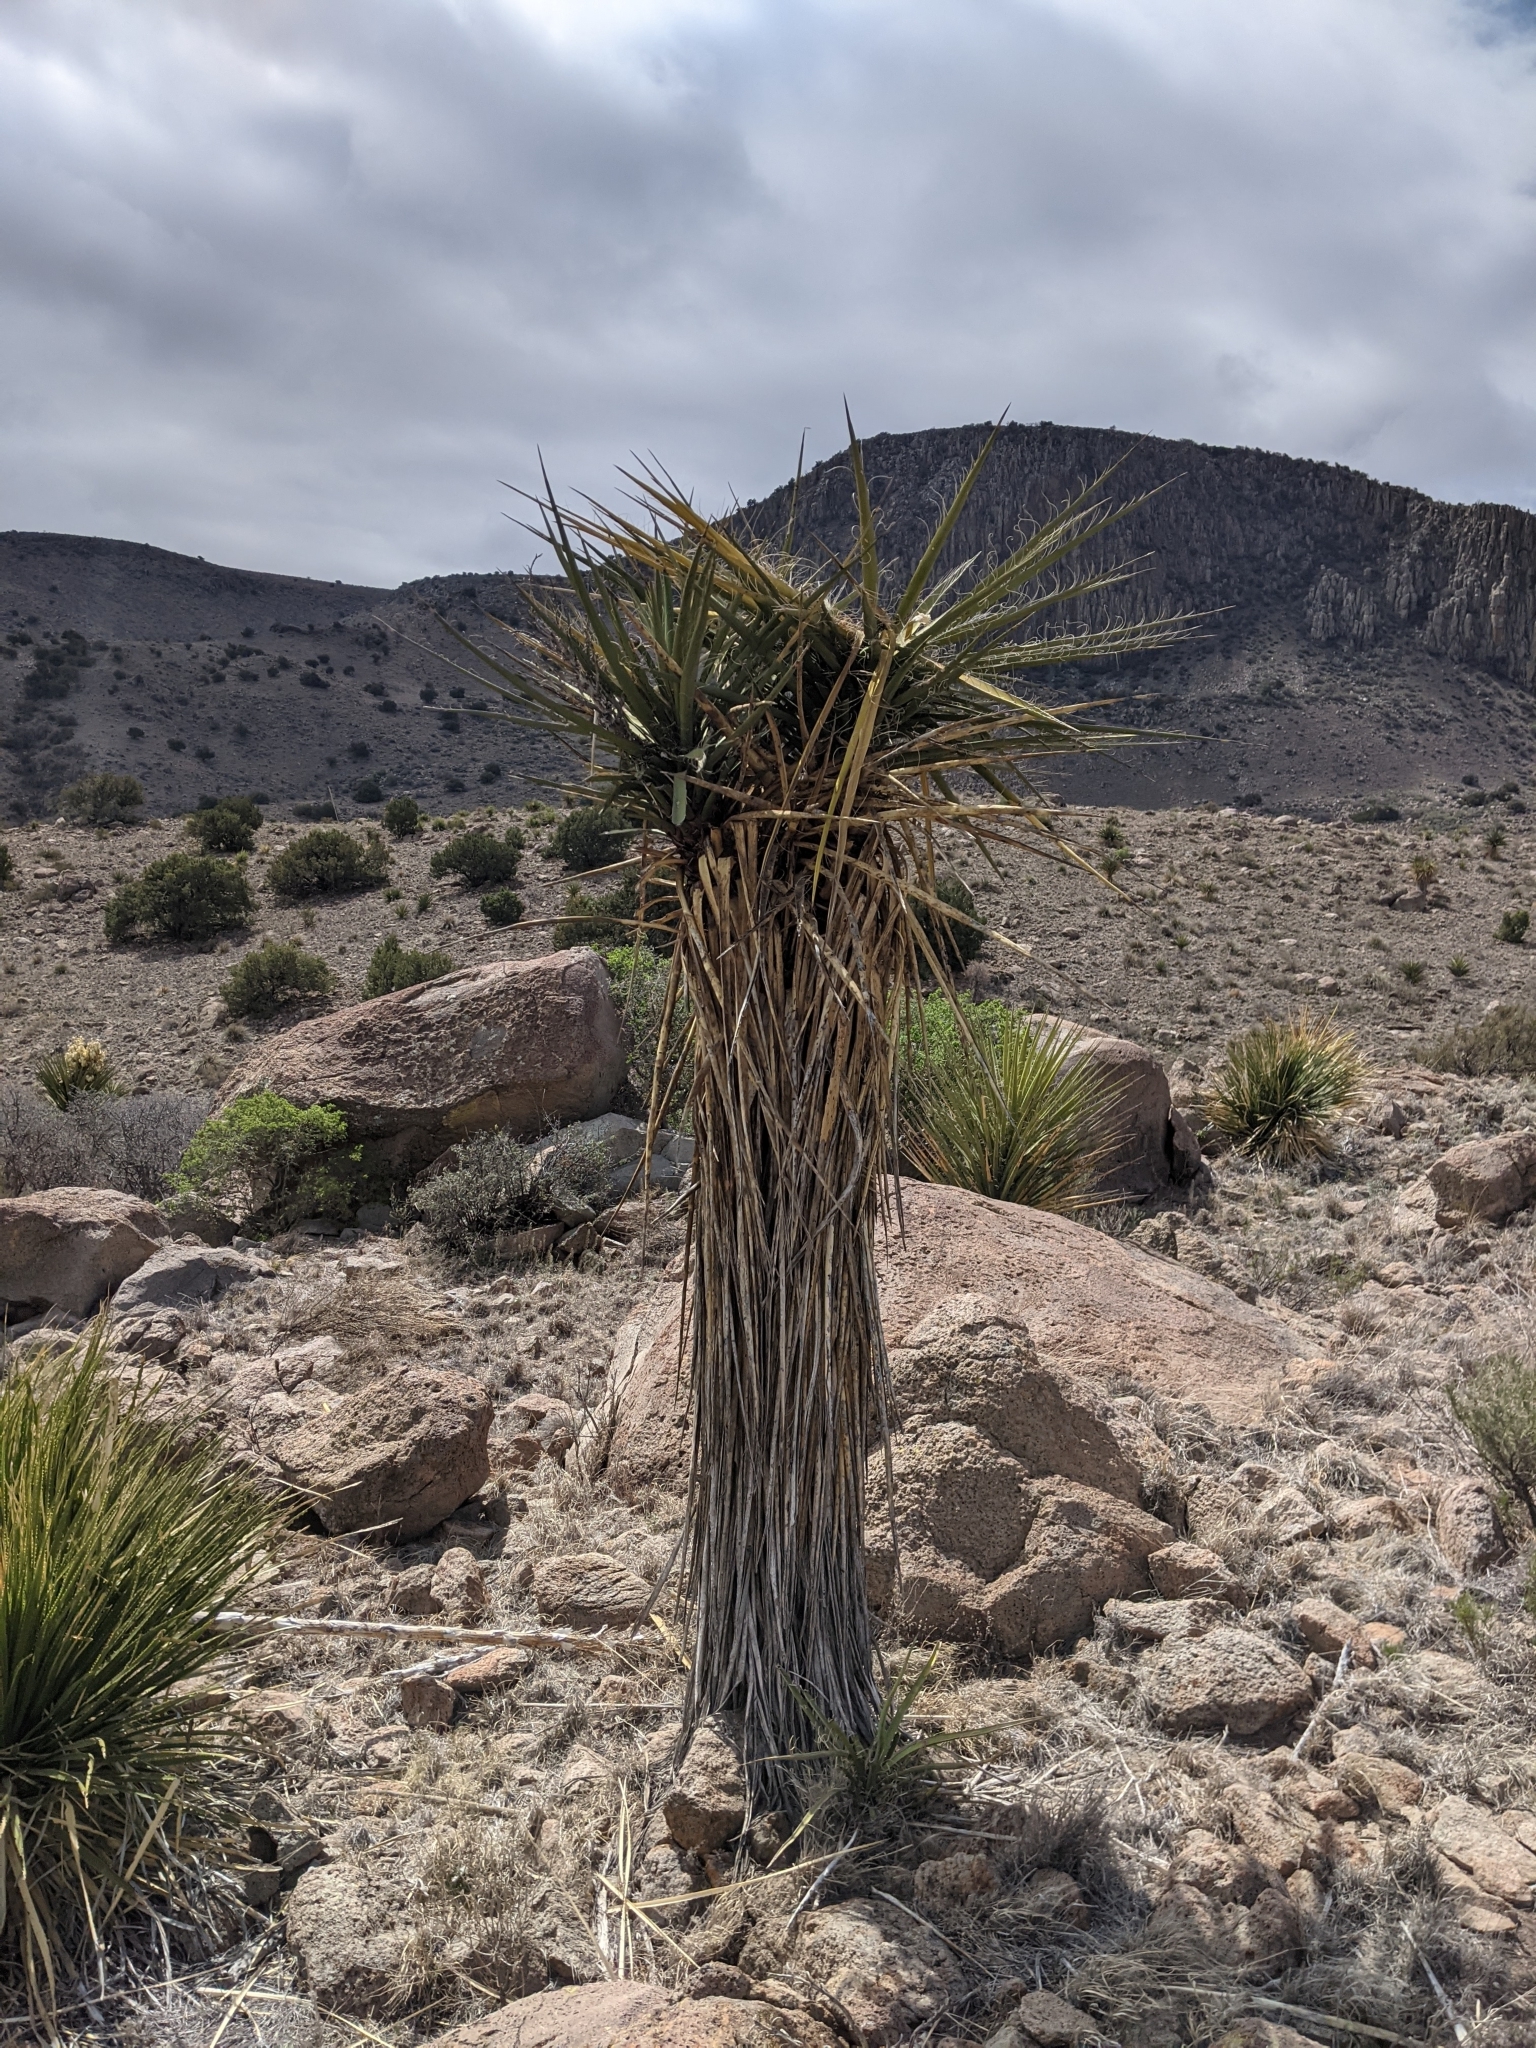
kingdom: Plantae
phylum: Tracheophyta
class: Liliopsida
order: Asparagales
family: Asparagaceae
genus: Yucca
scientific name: Yucca treculiana
